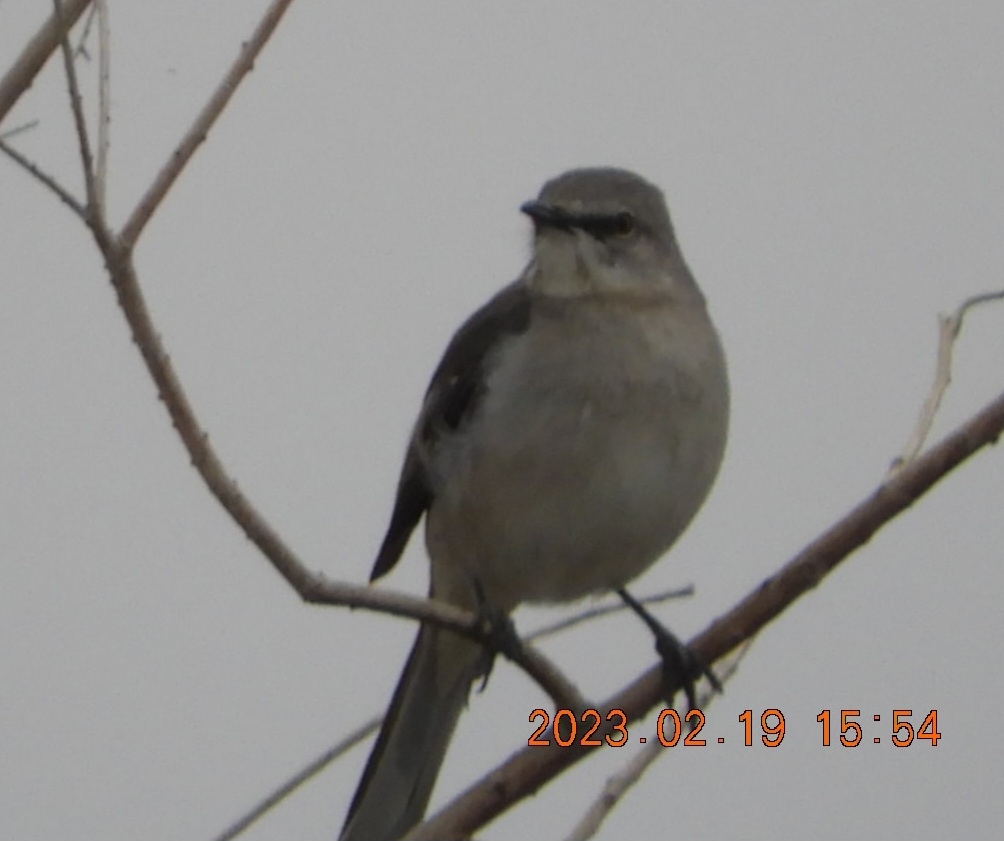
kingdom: Animalia
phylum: Chordata
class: Aves
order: Passeriformes
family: Mimidae
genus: Mimus
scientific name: Mimus polyglottos
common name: Northern mockingbird
